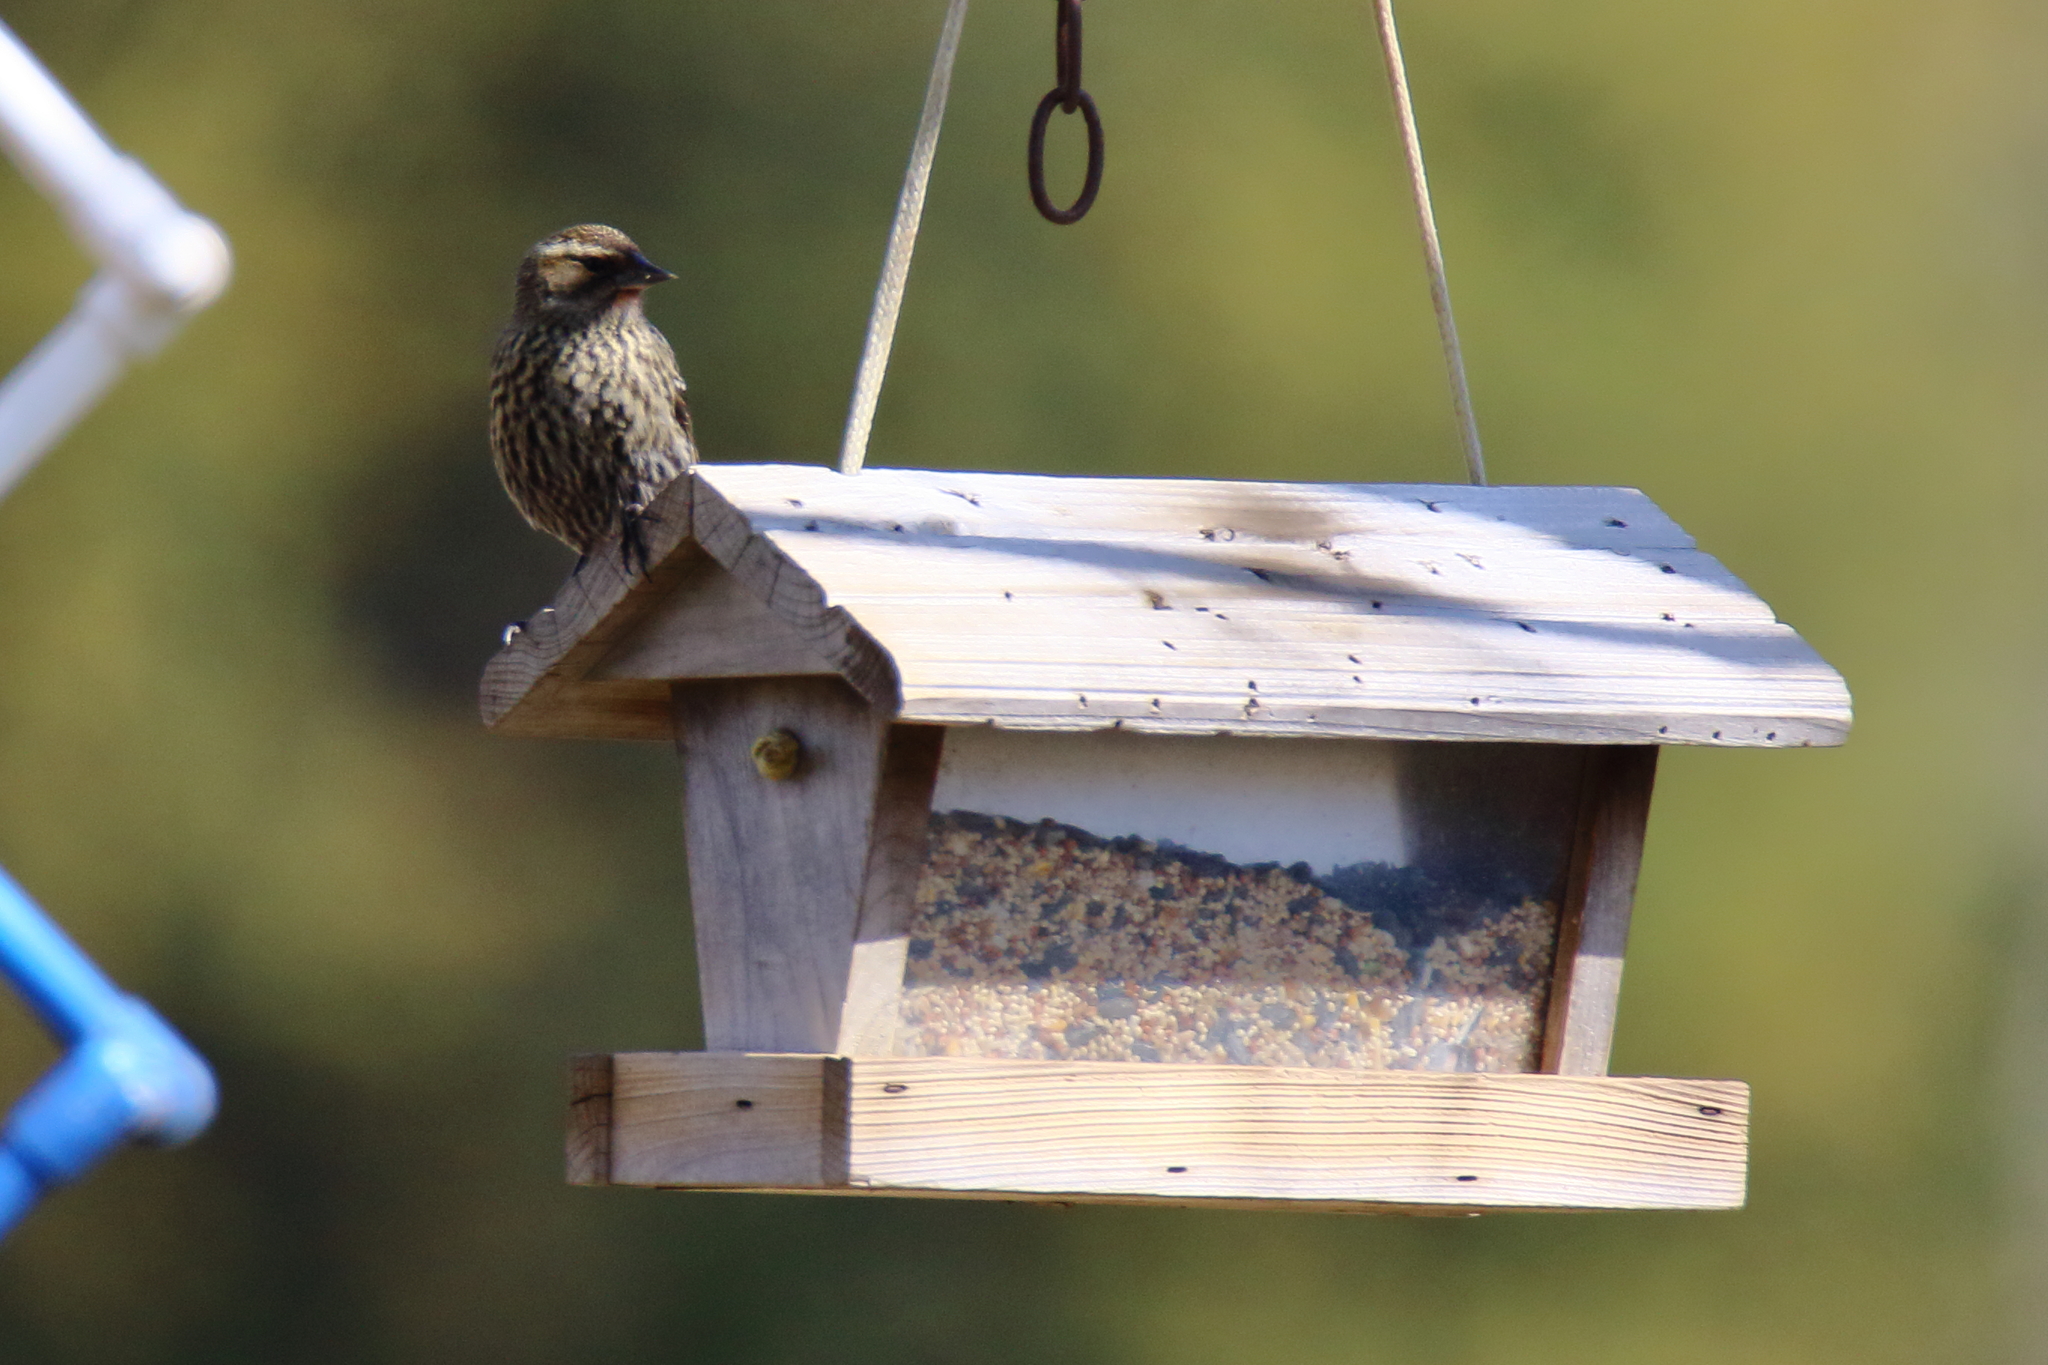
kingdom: Animalia
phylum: Chordata
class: Aves
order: Passeriformes
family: Icteridae
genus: Agelaius
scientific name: Agelaius phoeniceus
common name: Red-winged blackbird
